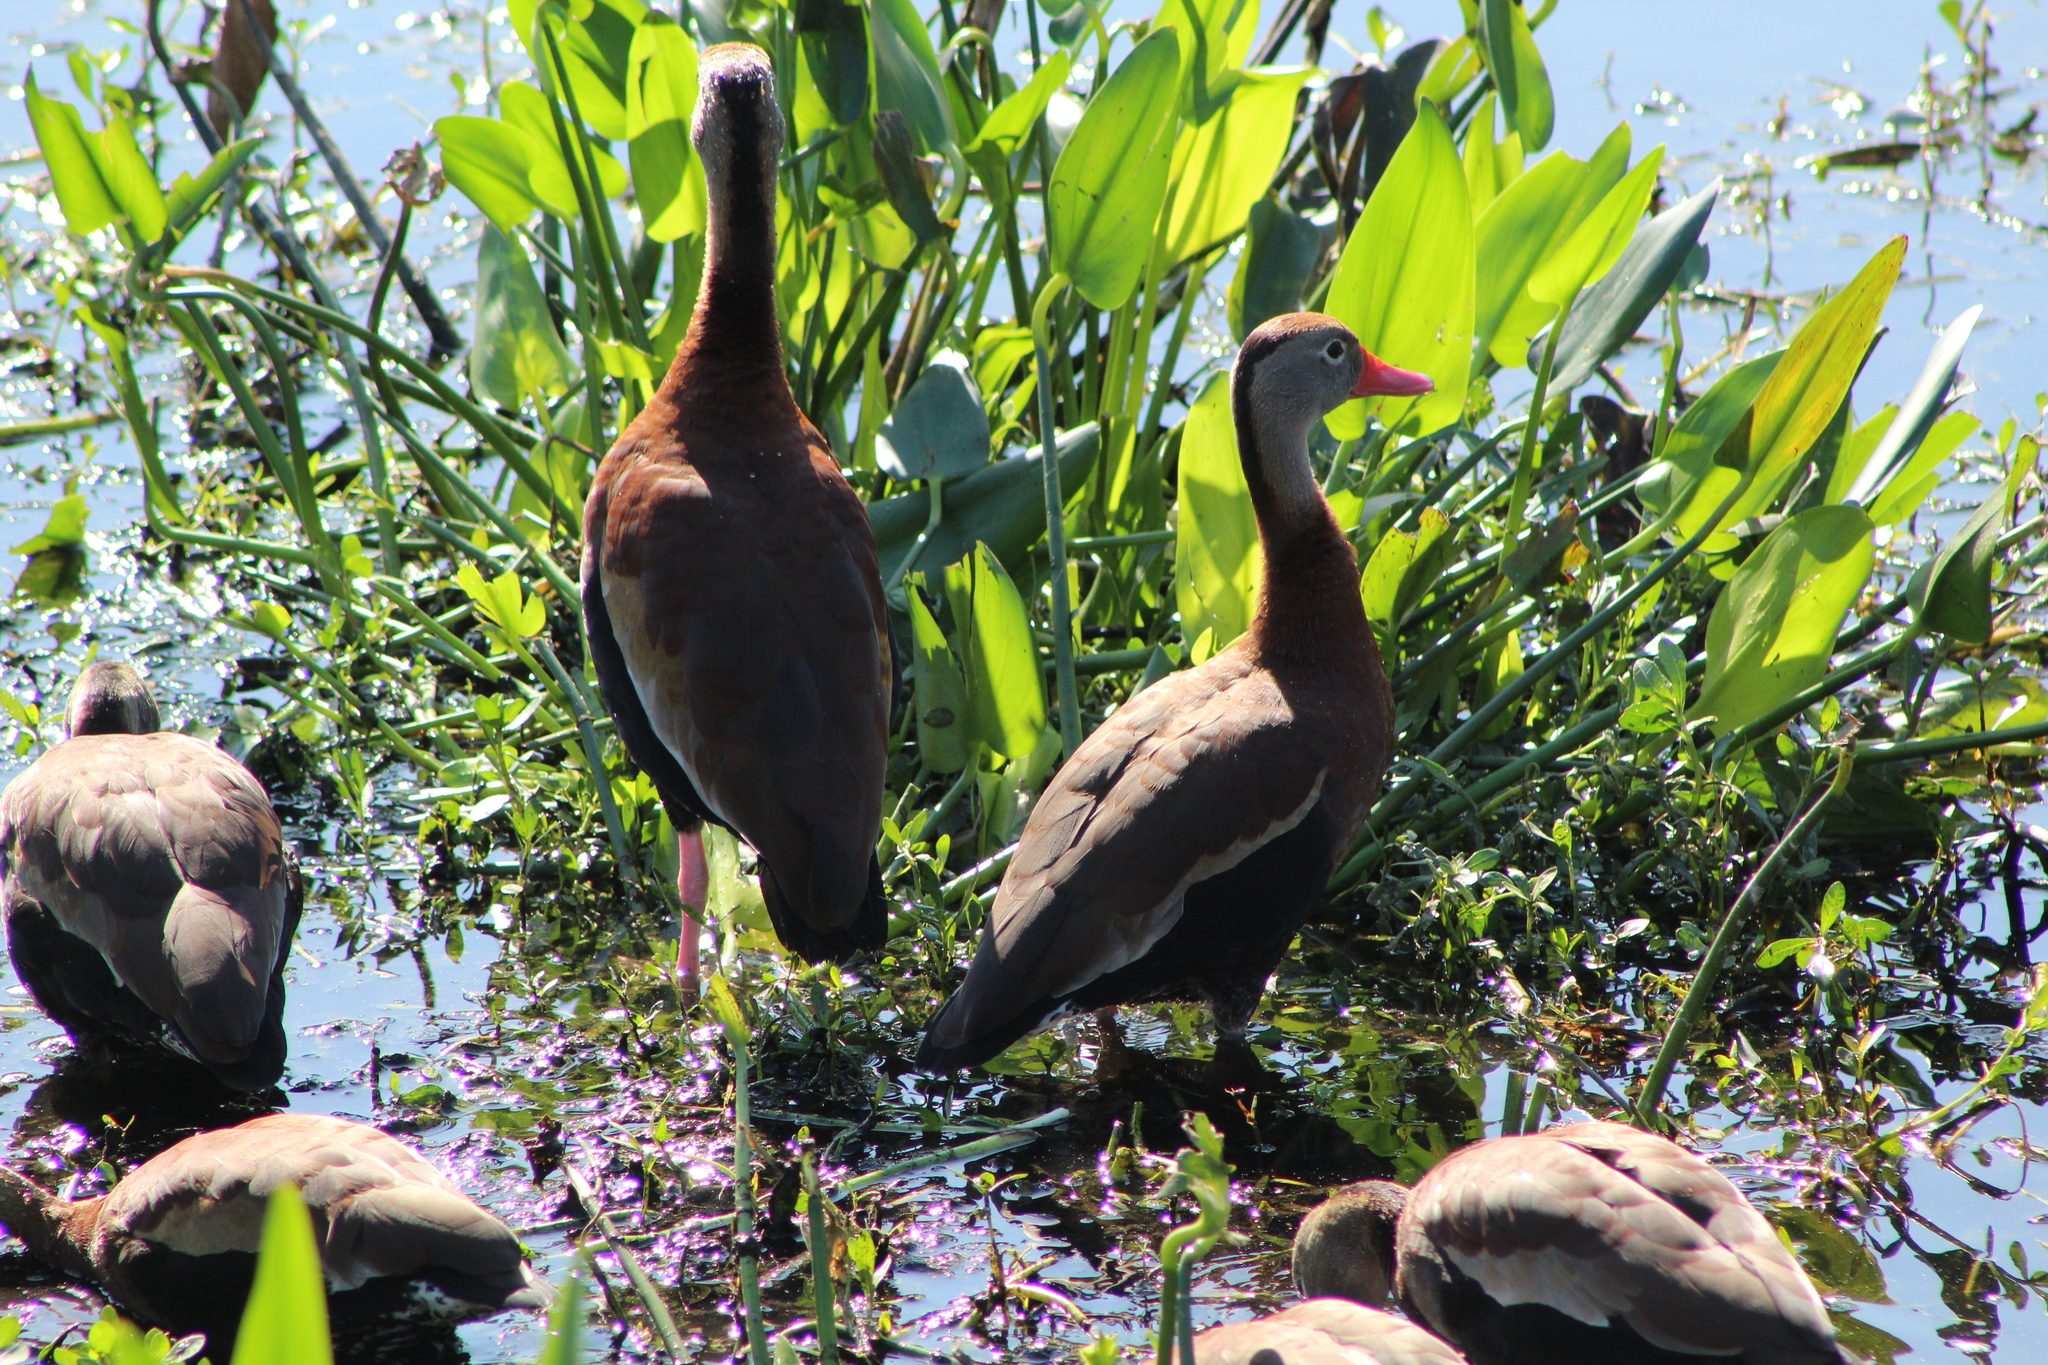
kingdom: Animalia
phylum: Chordata
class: Aves
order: Anseriformes
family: Anatidae
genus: Dendrocygna
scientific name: Dendrocygna autumnalis
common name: Black-bellied whistling duck
